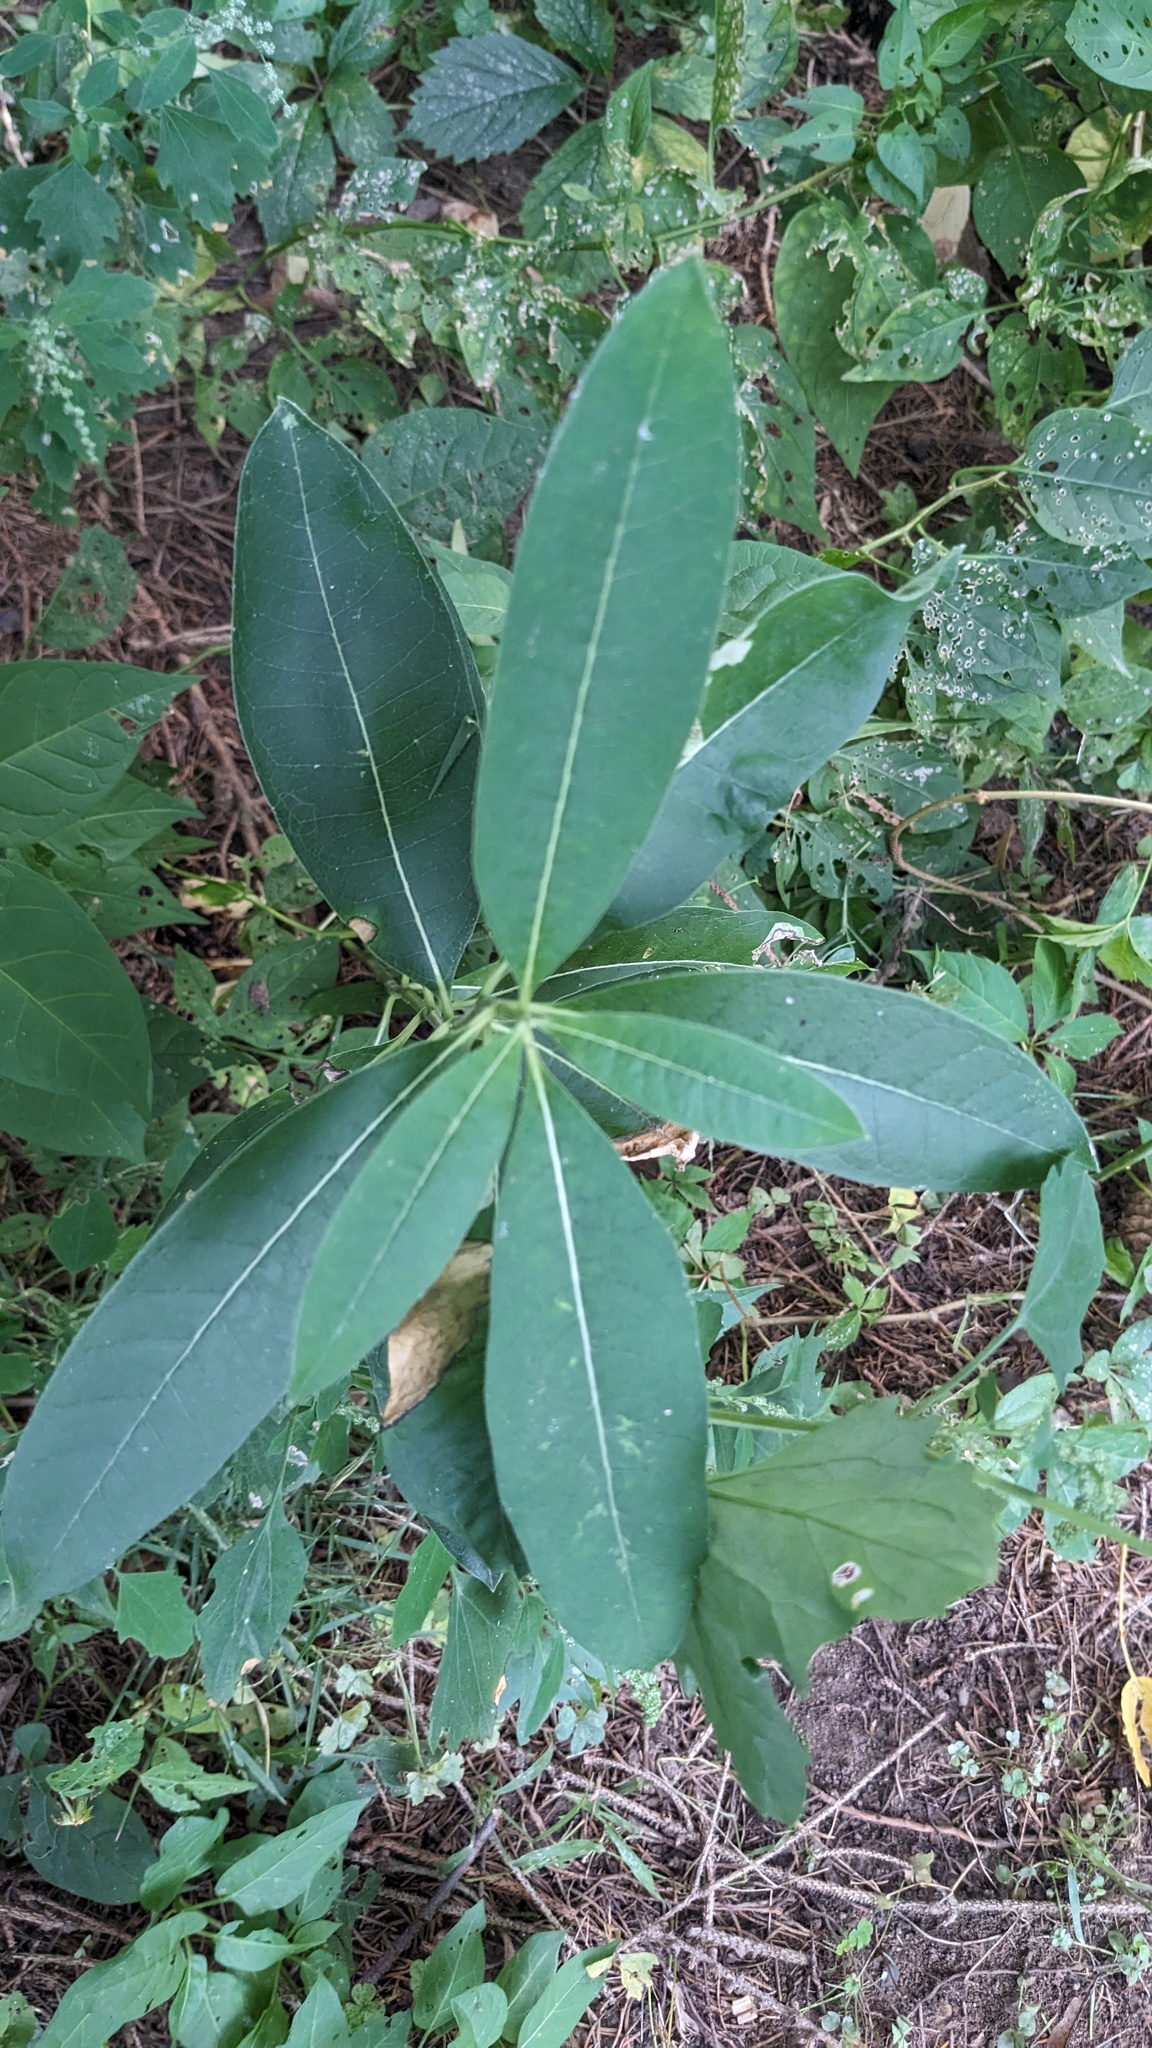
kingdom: Plantae
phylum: Tracheophyta
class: Magnoliopsida
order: Gentianales
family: Apocynaceae
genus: Asclepias
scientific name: Asclepias syriaca
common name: Common milkweed
